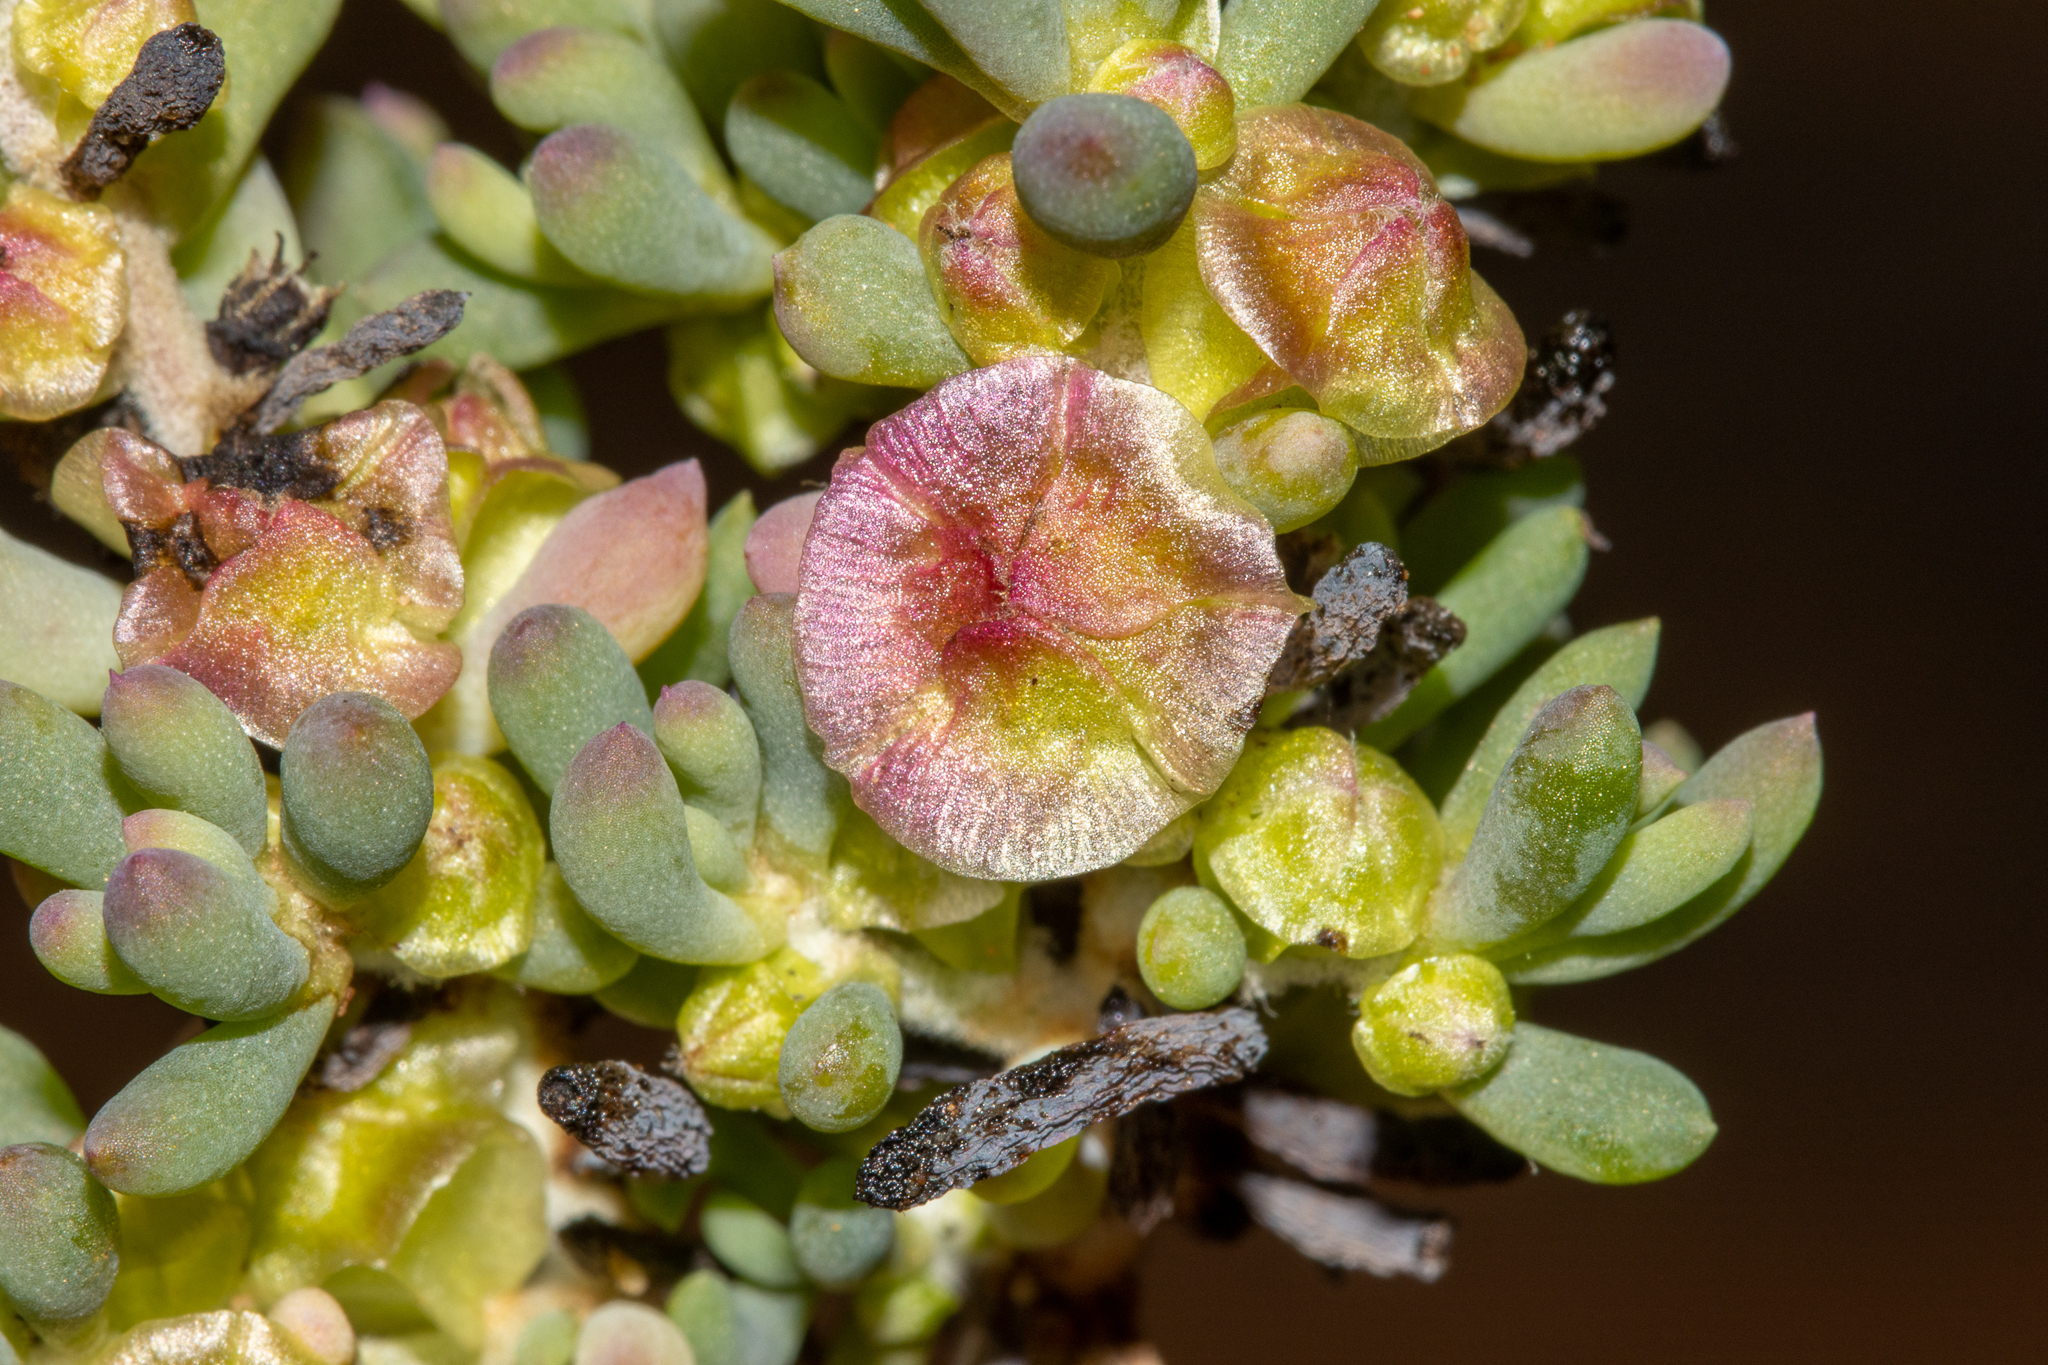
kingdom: Plantae
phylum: Tracheophyta
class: Magnoliopsida
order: Caryophyllales
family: Amaranthaceae
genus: Maireana
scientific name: Maireana erioclada
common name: Rosy bluebush
